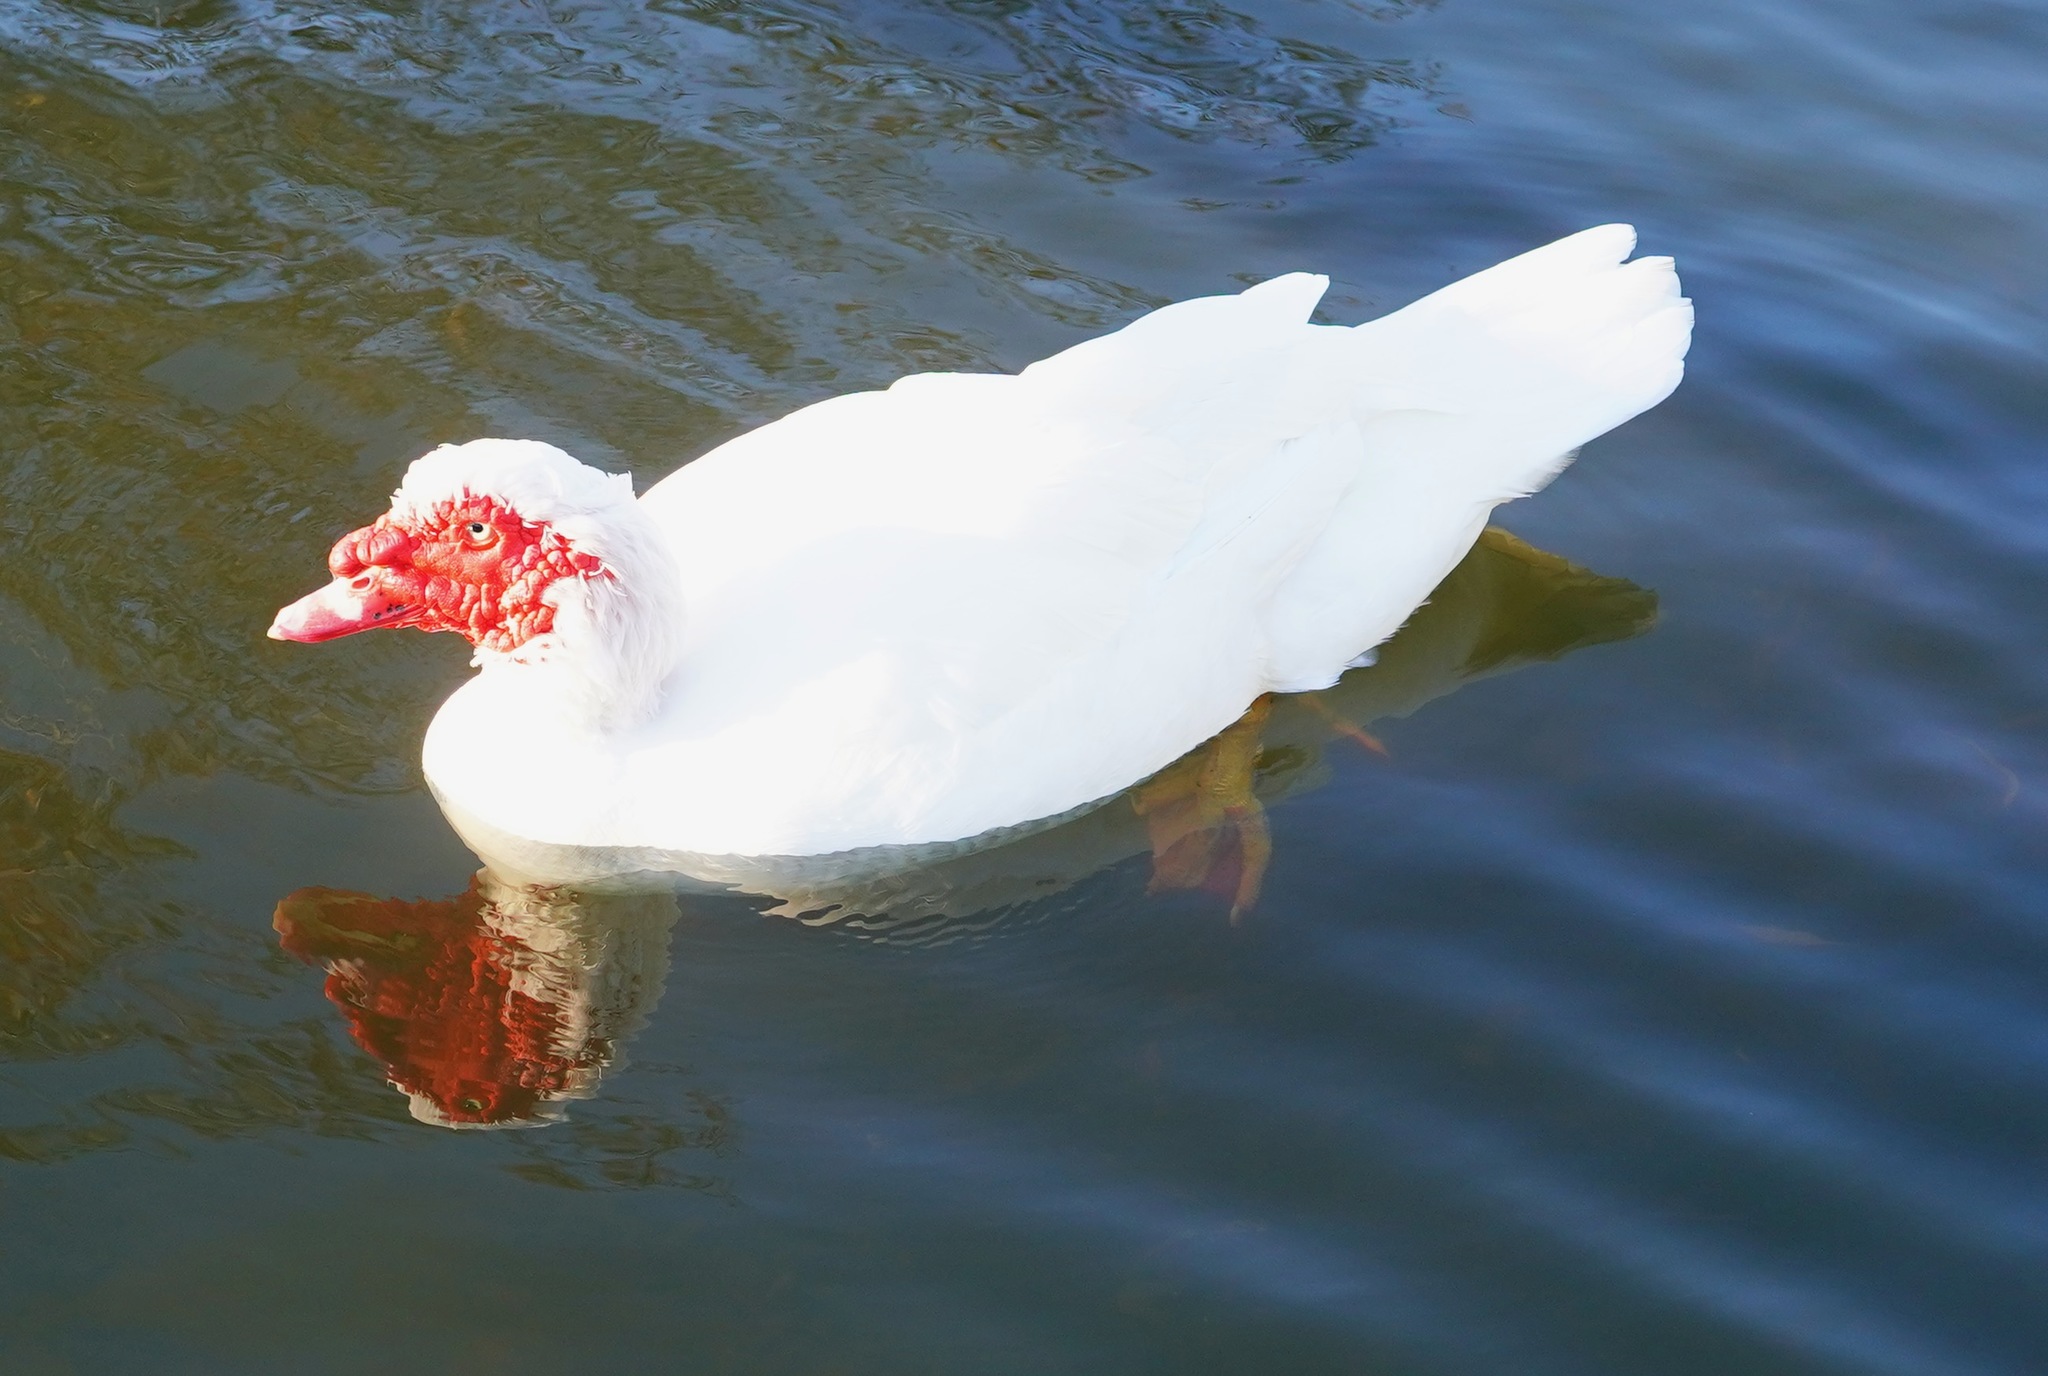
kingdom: Animalia
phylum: Chordata
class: Aves
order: Anseriformes
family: Anatidae
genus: Cairina
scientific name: Cairina moschata
